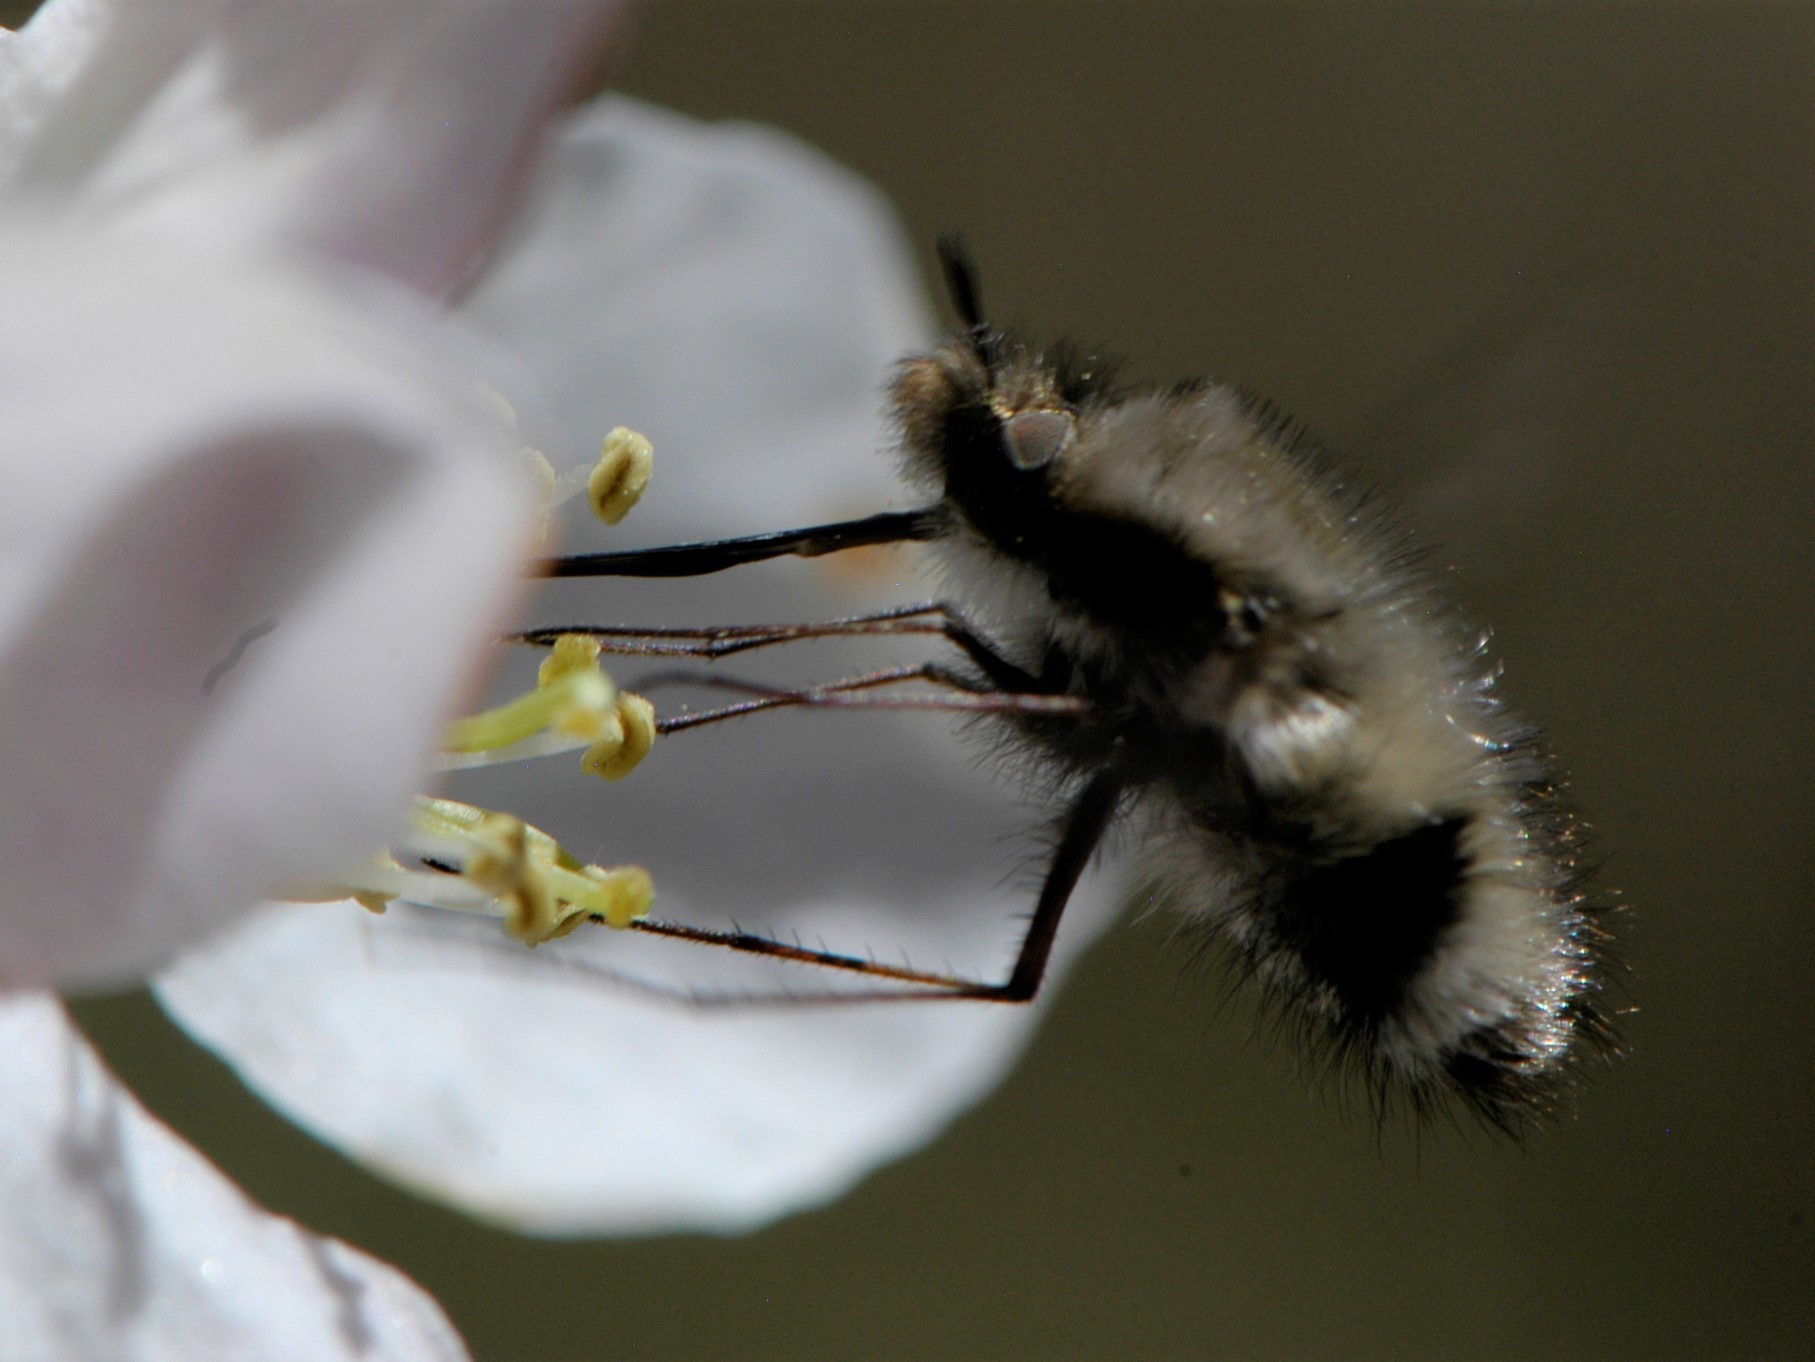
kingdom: Animalia
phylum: Arthropoda
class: Insecta
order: Diptera
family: Bombyliidae
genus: Bombylius
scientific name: Bombylius
